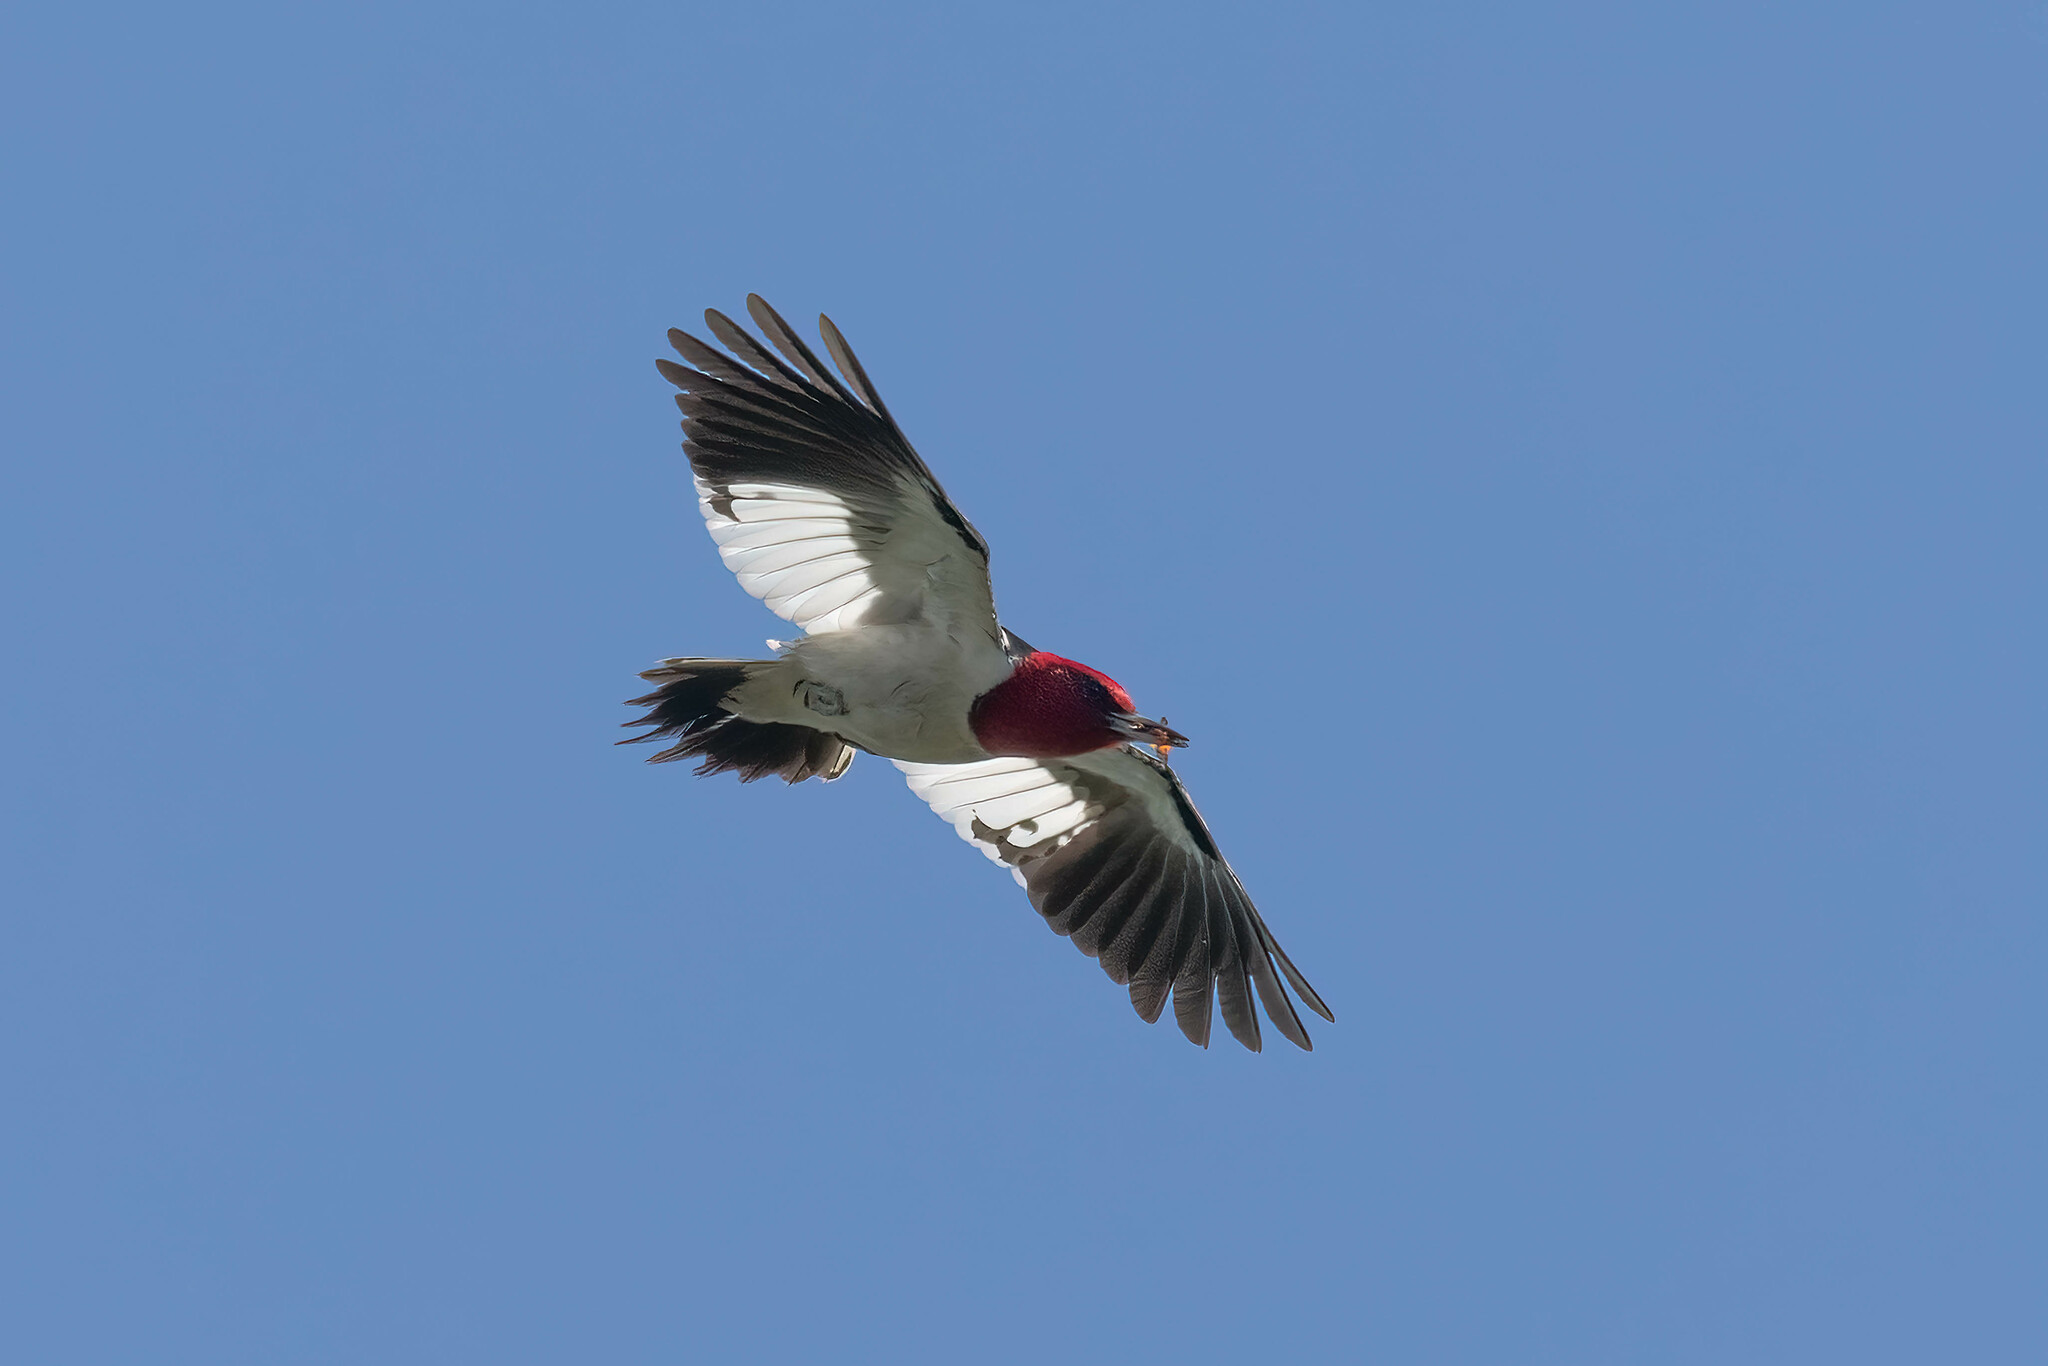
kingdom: Animalia
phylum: Chordata
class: Aves
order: Piciformes
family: Picidae
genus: Melanerpes
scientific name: Melanerpes erythrocephalus
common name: Red-headed woodpecker
